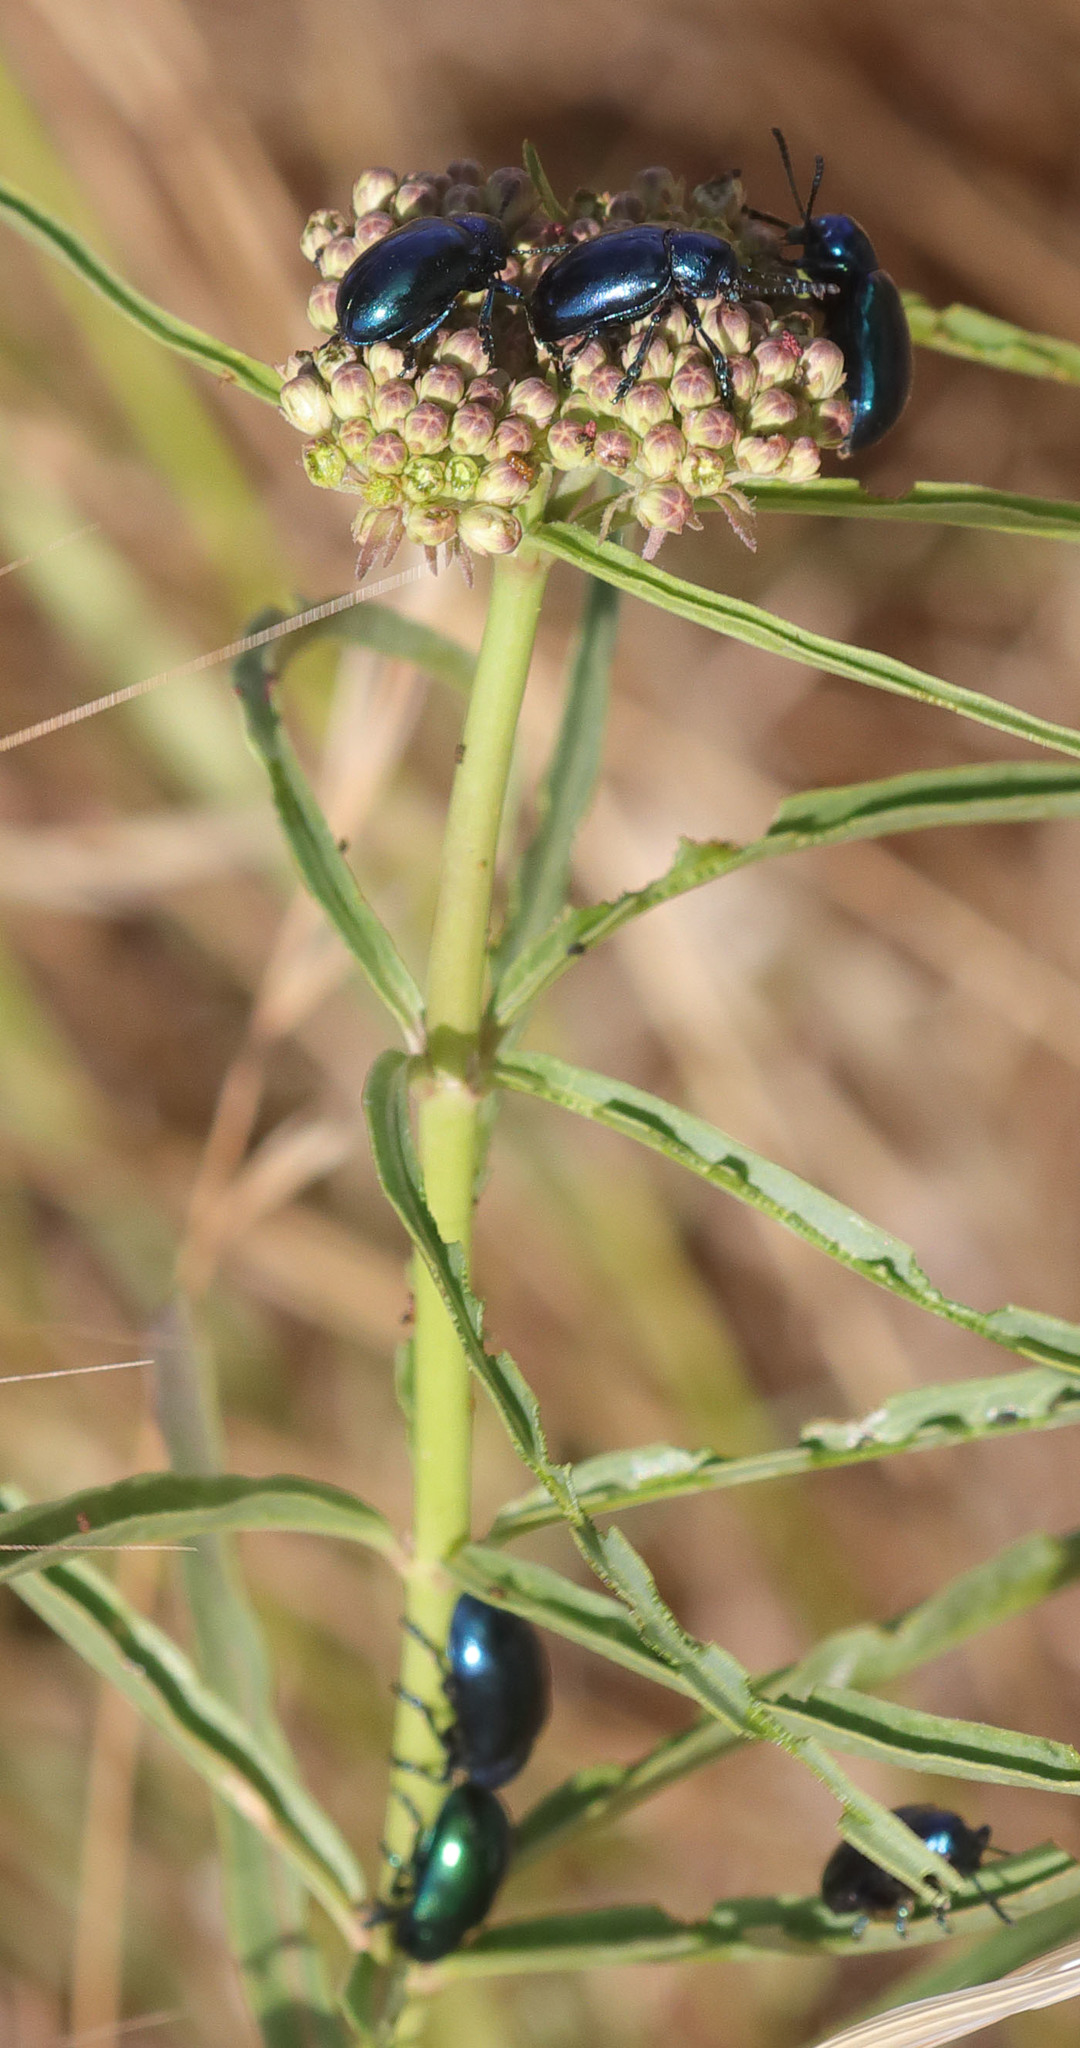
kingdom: Animalia
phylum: Arthropoda
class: Insecta
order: Coleoptera
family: Chrysomelidae
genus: Chrysochus
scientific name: Chrysochus cobaltinus
